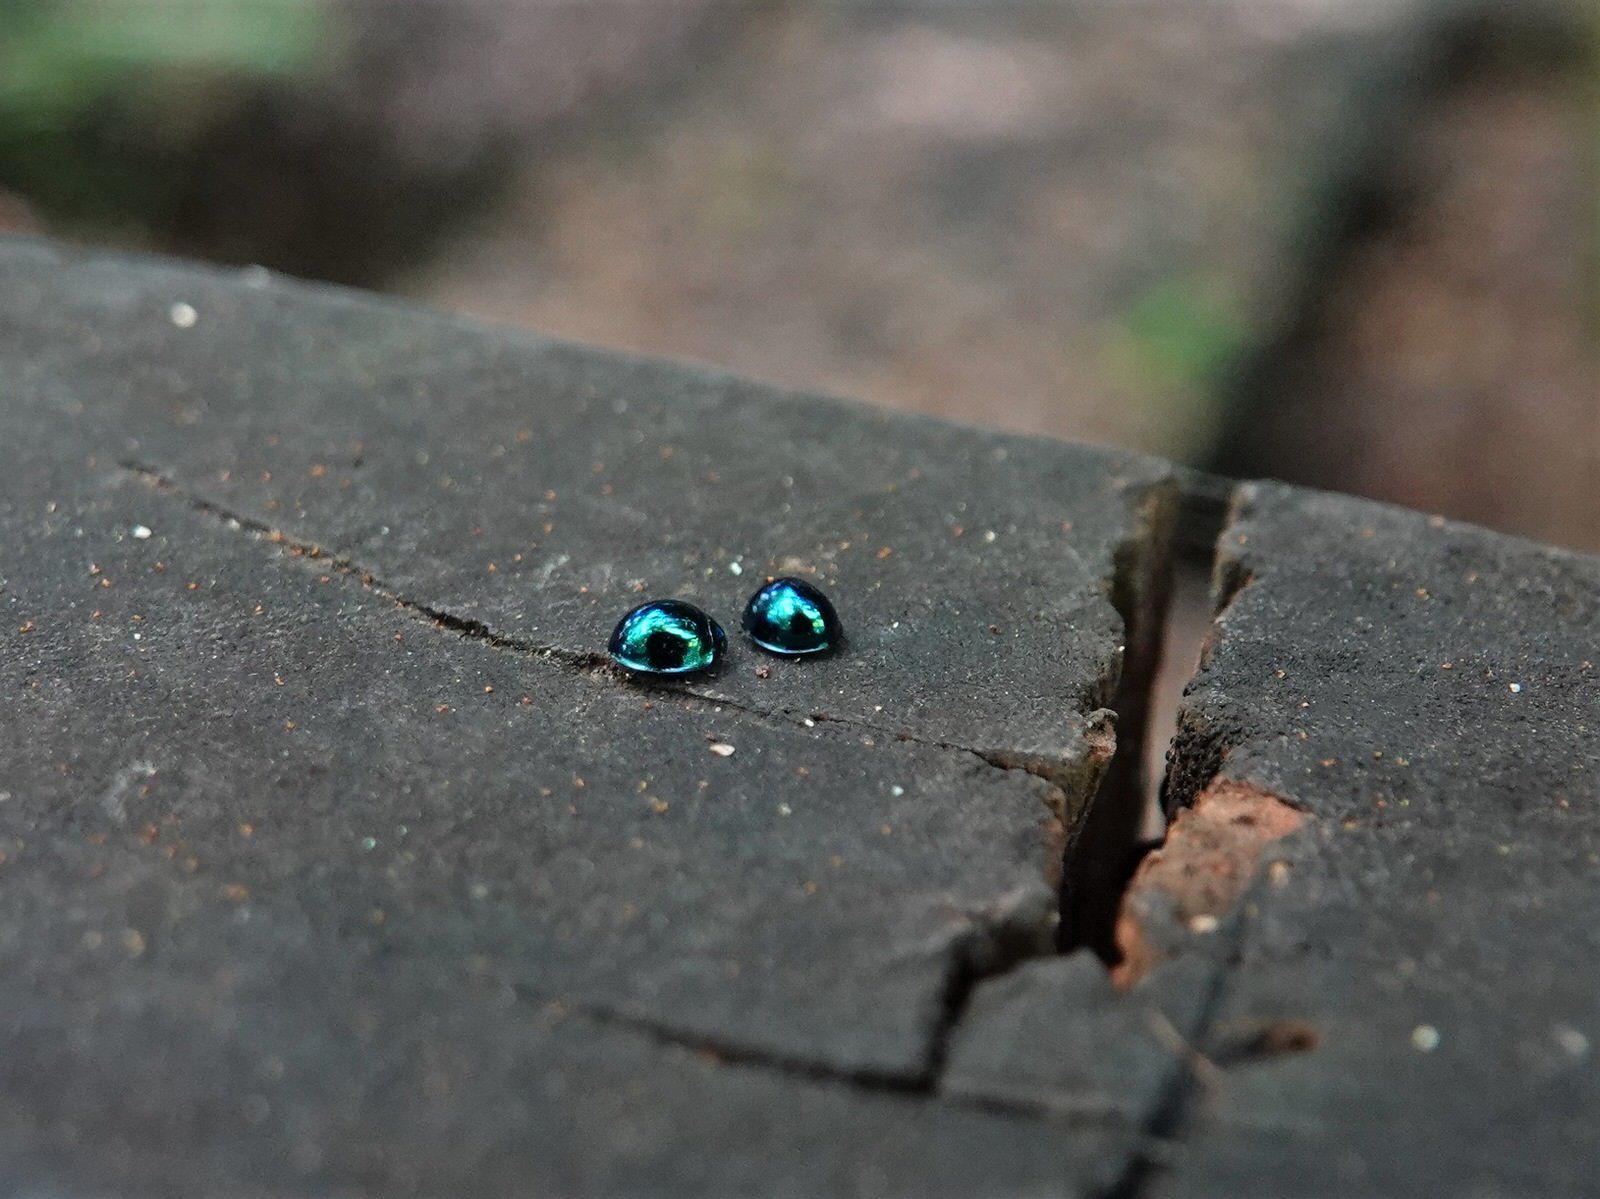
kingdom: Animalia
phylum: Arthropoda
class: Insecta
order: Coleoptera
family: Coccinellidae
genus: Halmus
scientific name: Halmus chalybeus
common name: Steel blue ladybird beetle
